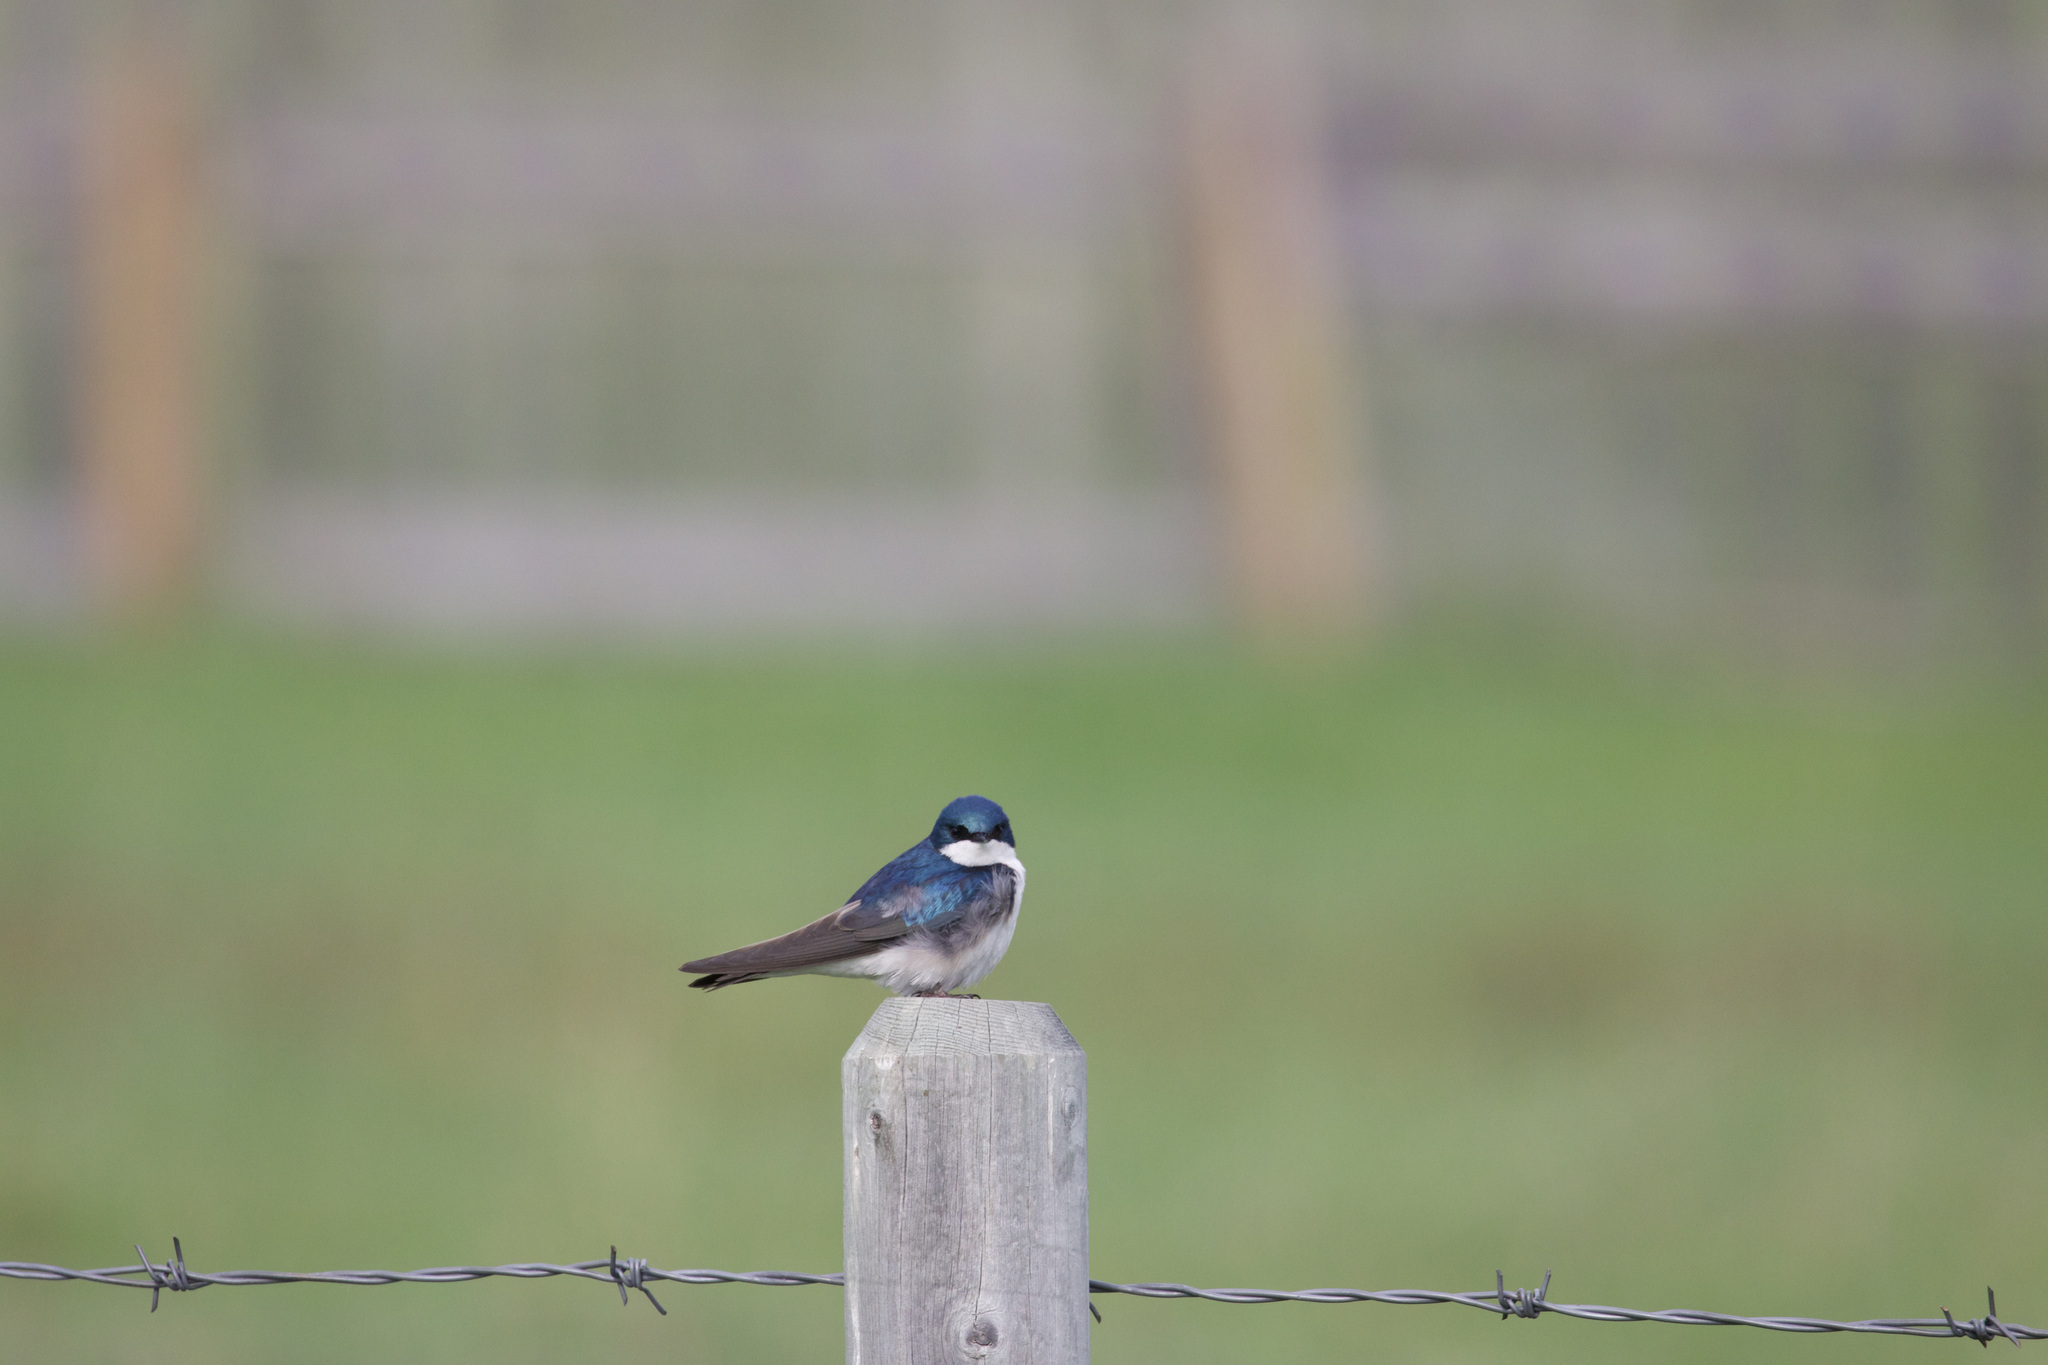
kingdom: Animalia
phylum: Chordata
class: Aves
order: Passeriformes
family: Hirundinidae
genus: Tachycineta
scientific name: Tachycineta bicolor
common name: Tree swallow
